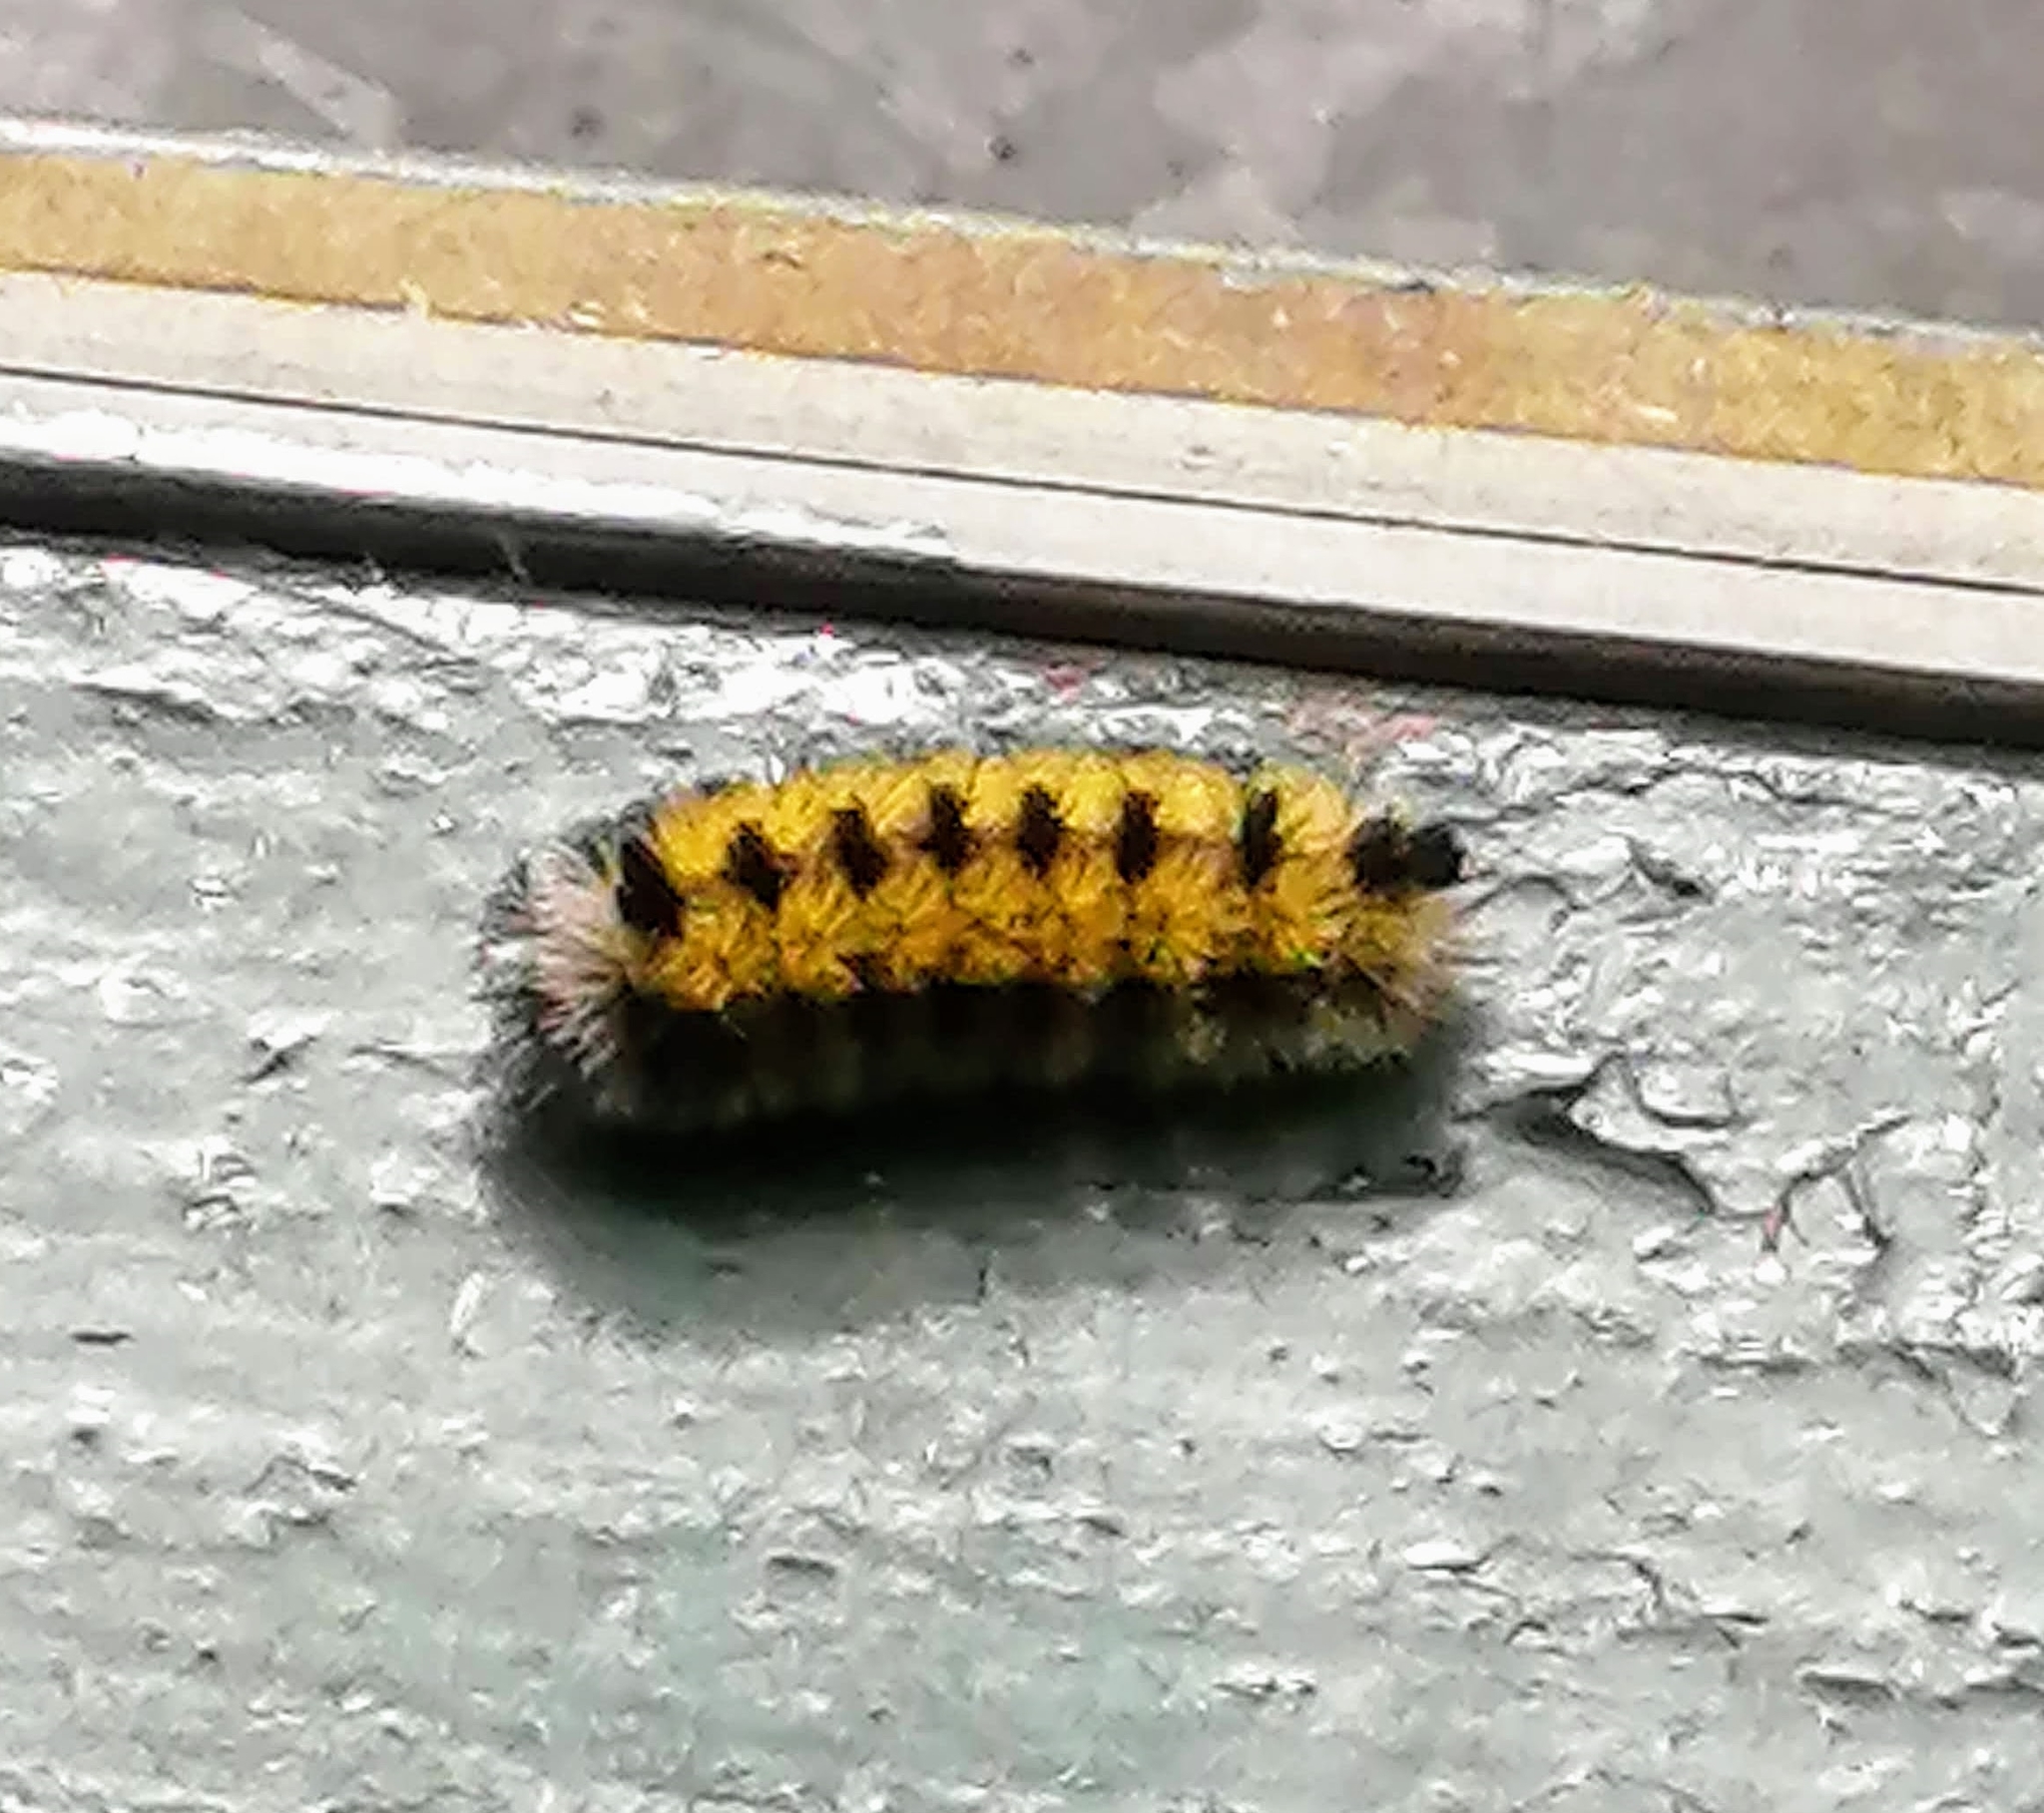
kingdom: Animalia
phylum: Arthropoda
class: Insecta
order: Lepidoptera
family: Erebidae
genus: Ctenucha
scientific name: Ctenucha virginica
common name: Virginia ctenucha moth
